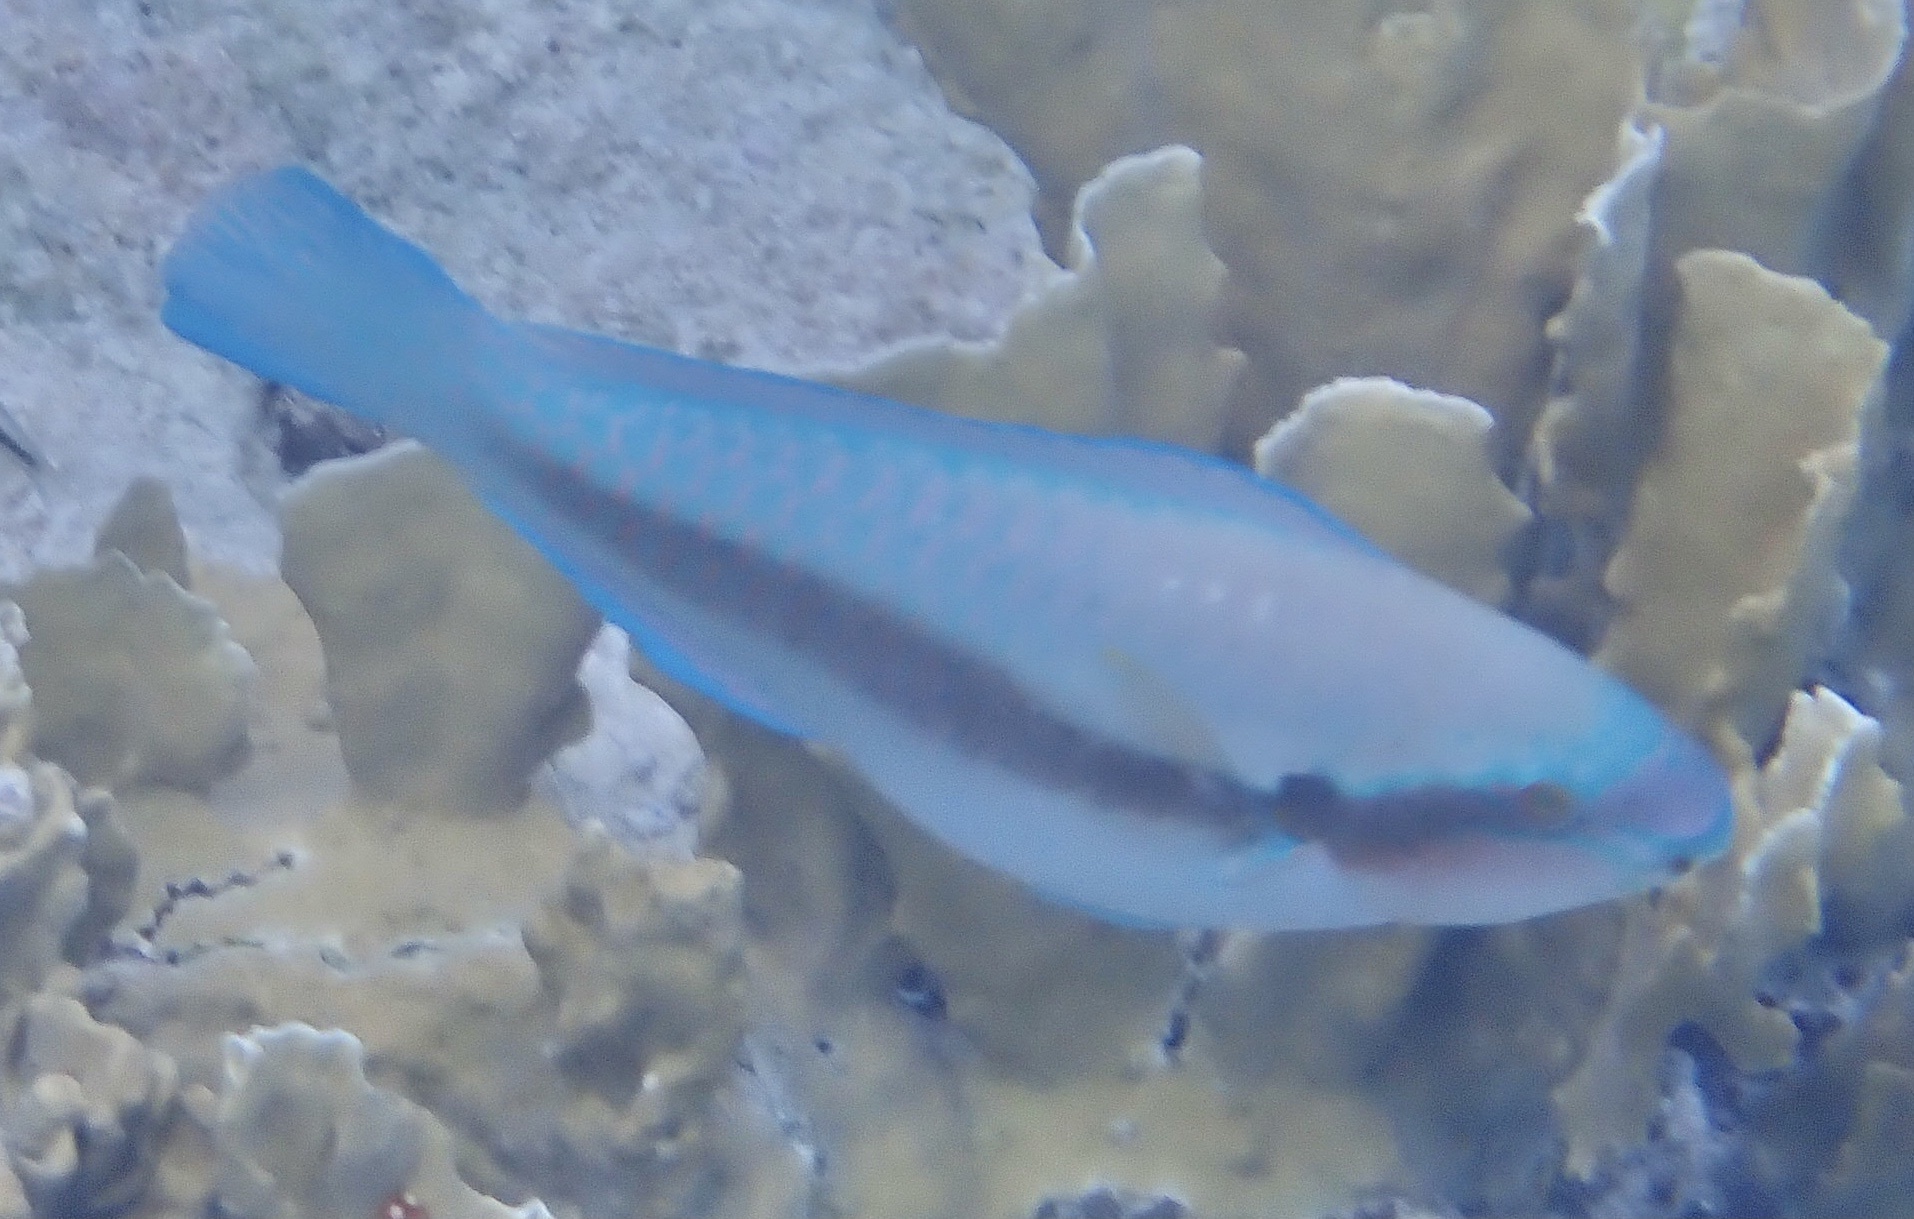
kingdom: Animalia
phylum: Chordata
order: Perciformes
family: Scaridae
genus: Scarus
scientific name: Scarus iseri
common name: Striped parrotfish
